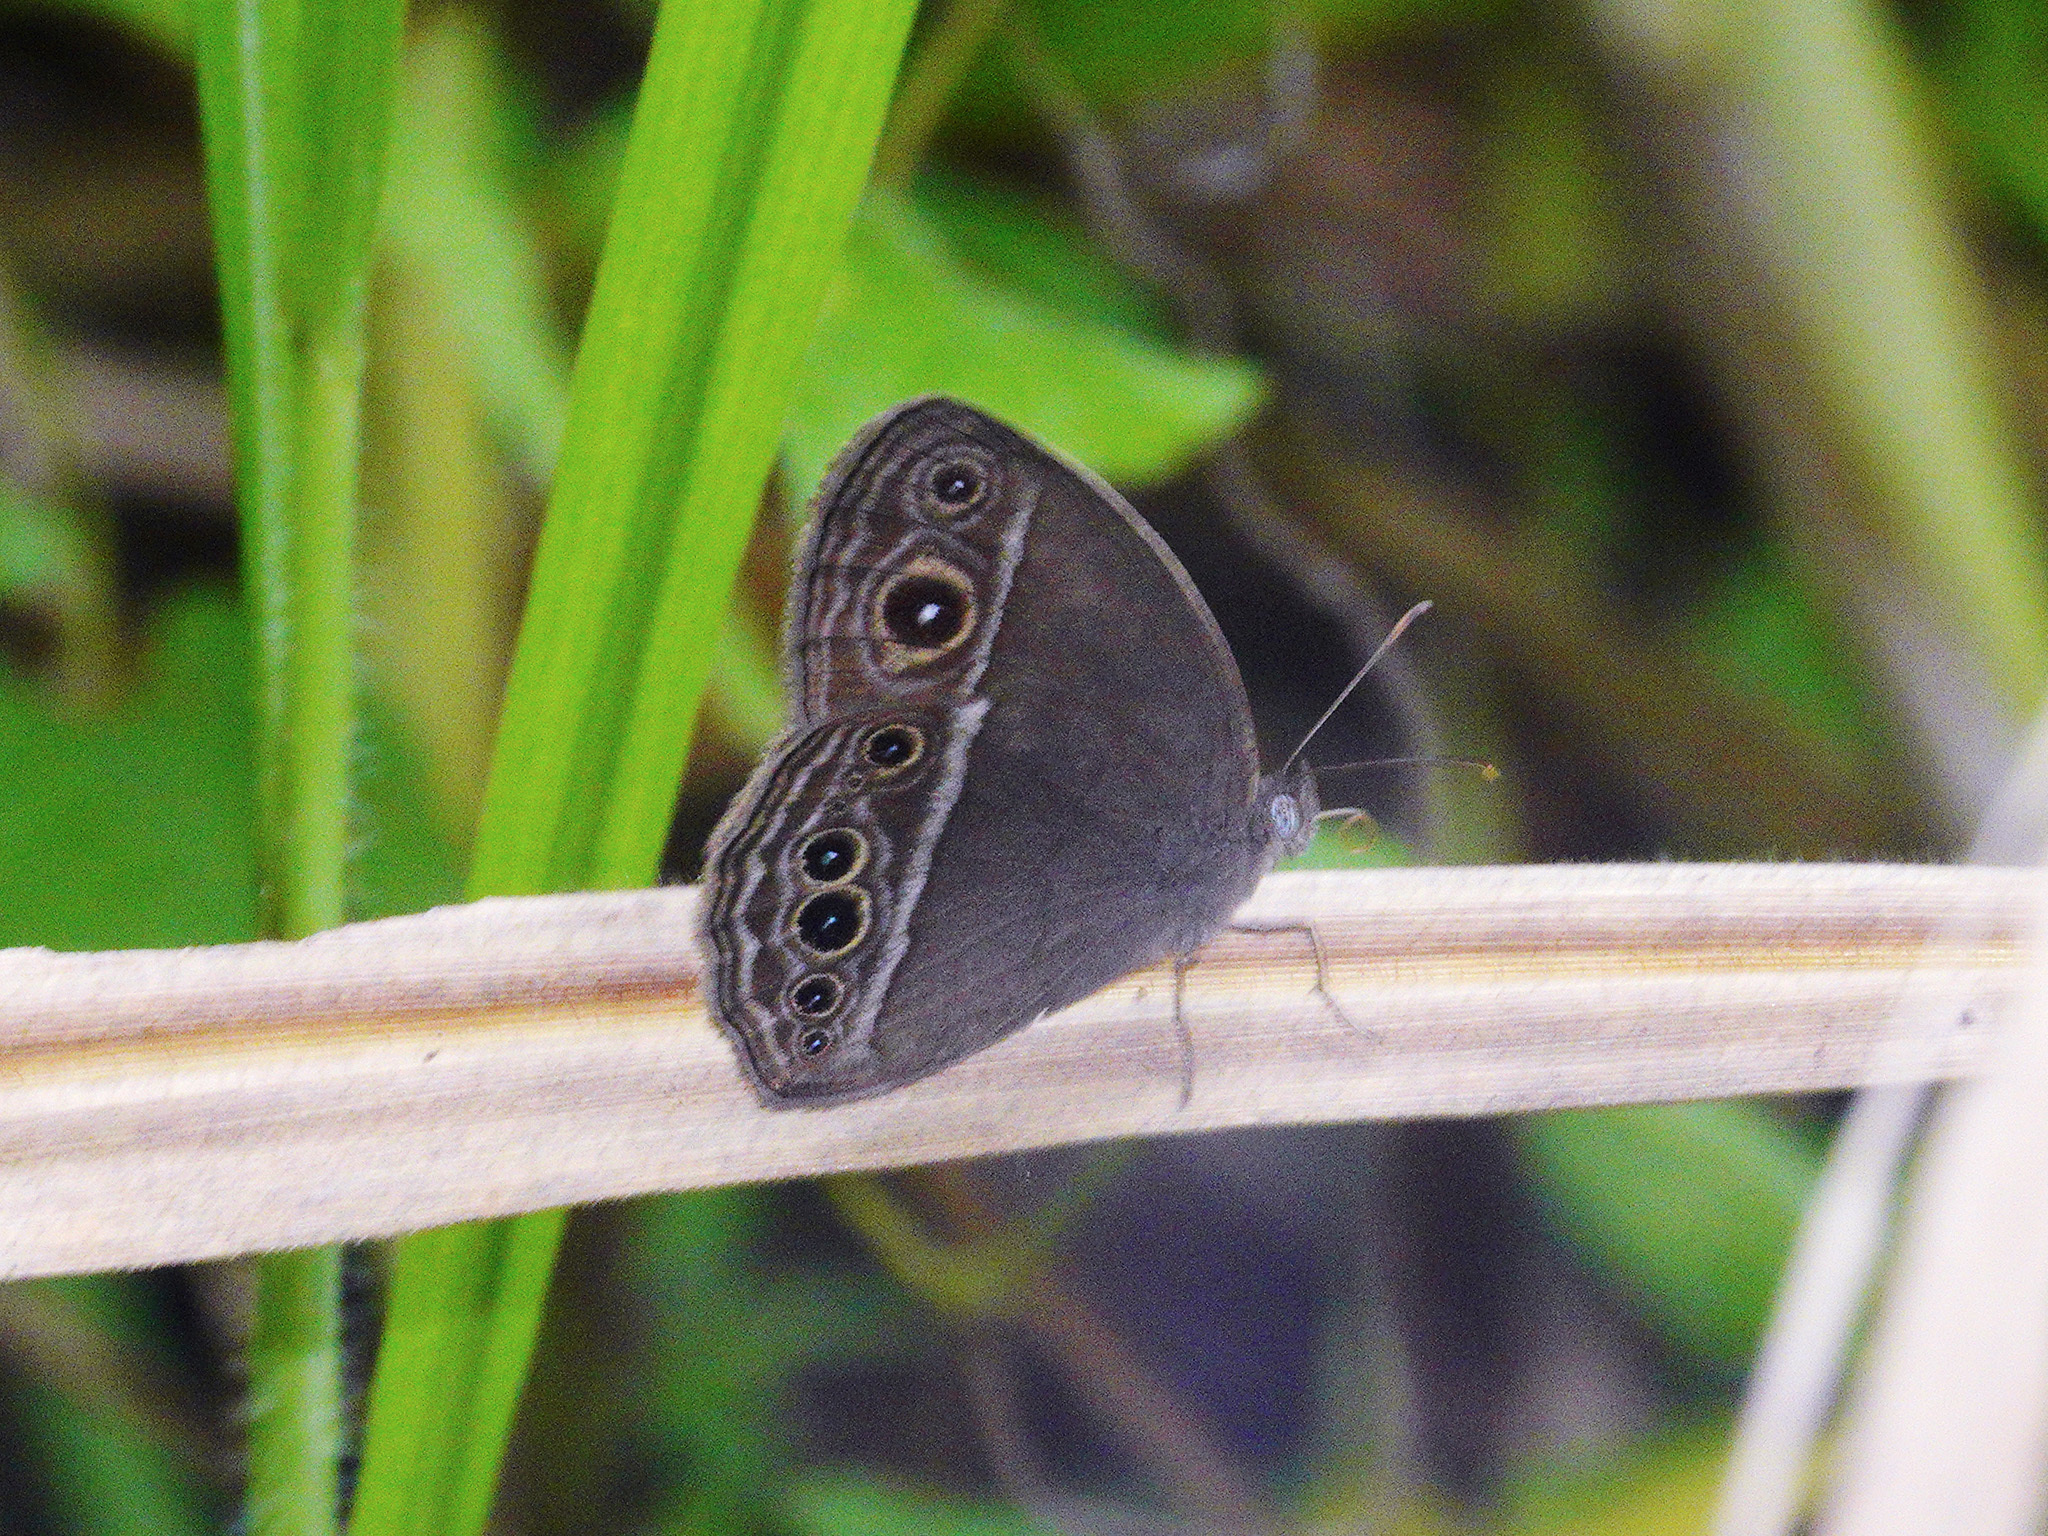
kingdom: Animalia
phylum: Arthropoda
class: Insecta
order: Lepidoptera
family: Nymphalidae
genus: Mycalesis
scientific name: Mycalesis mineus
